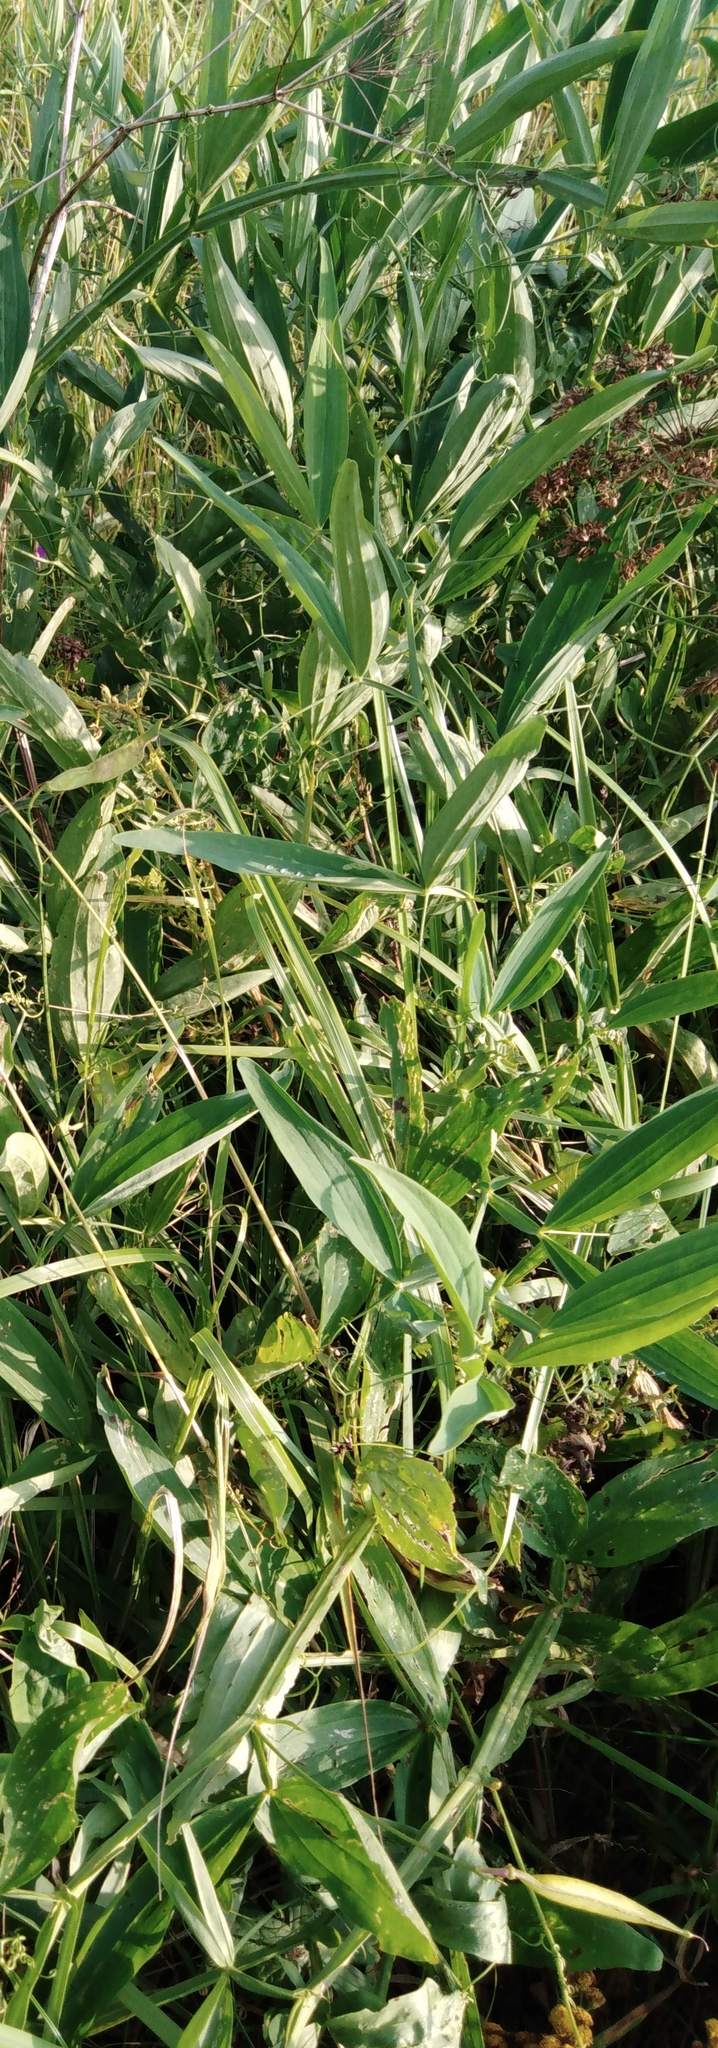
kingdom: Plantae
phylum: Tracheophyta
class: Magnoliopsida
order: Fabales
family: Fabaceae
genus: Lathyrus
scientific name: Lathyrus sylvestris
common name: Flat pea
